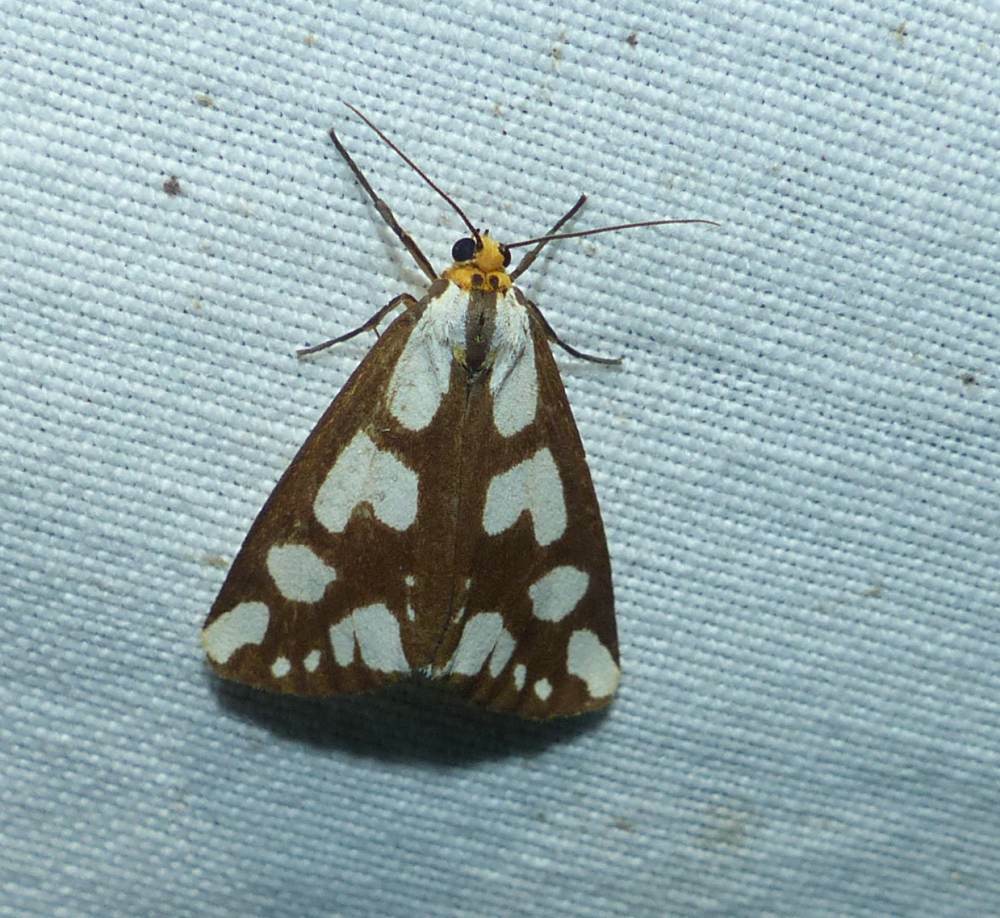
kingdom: Animalia
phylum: Arthropoda
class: Insecta
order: Lepidoptera
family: Erebidae
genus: Haploa
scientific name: Haploa confusa
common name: Confused haploa moth
